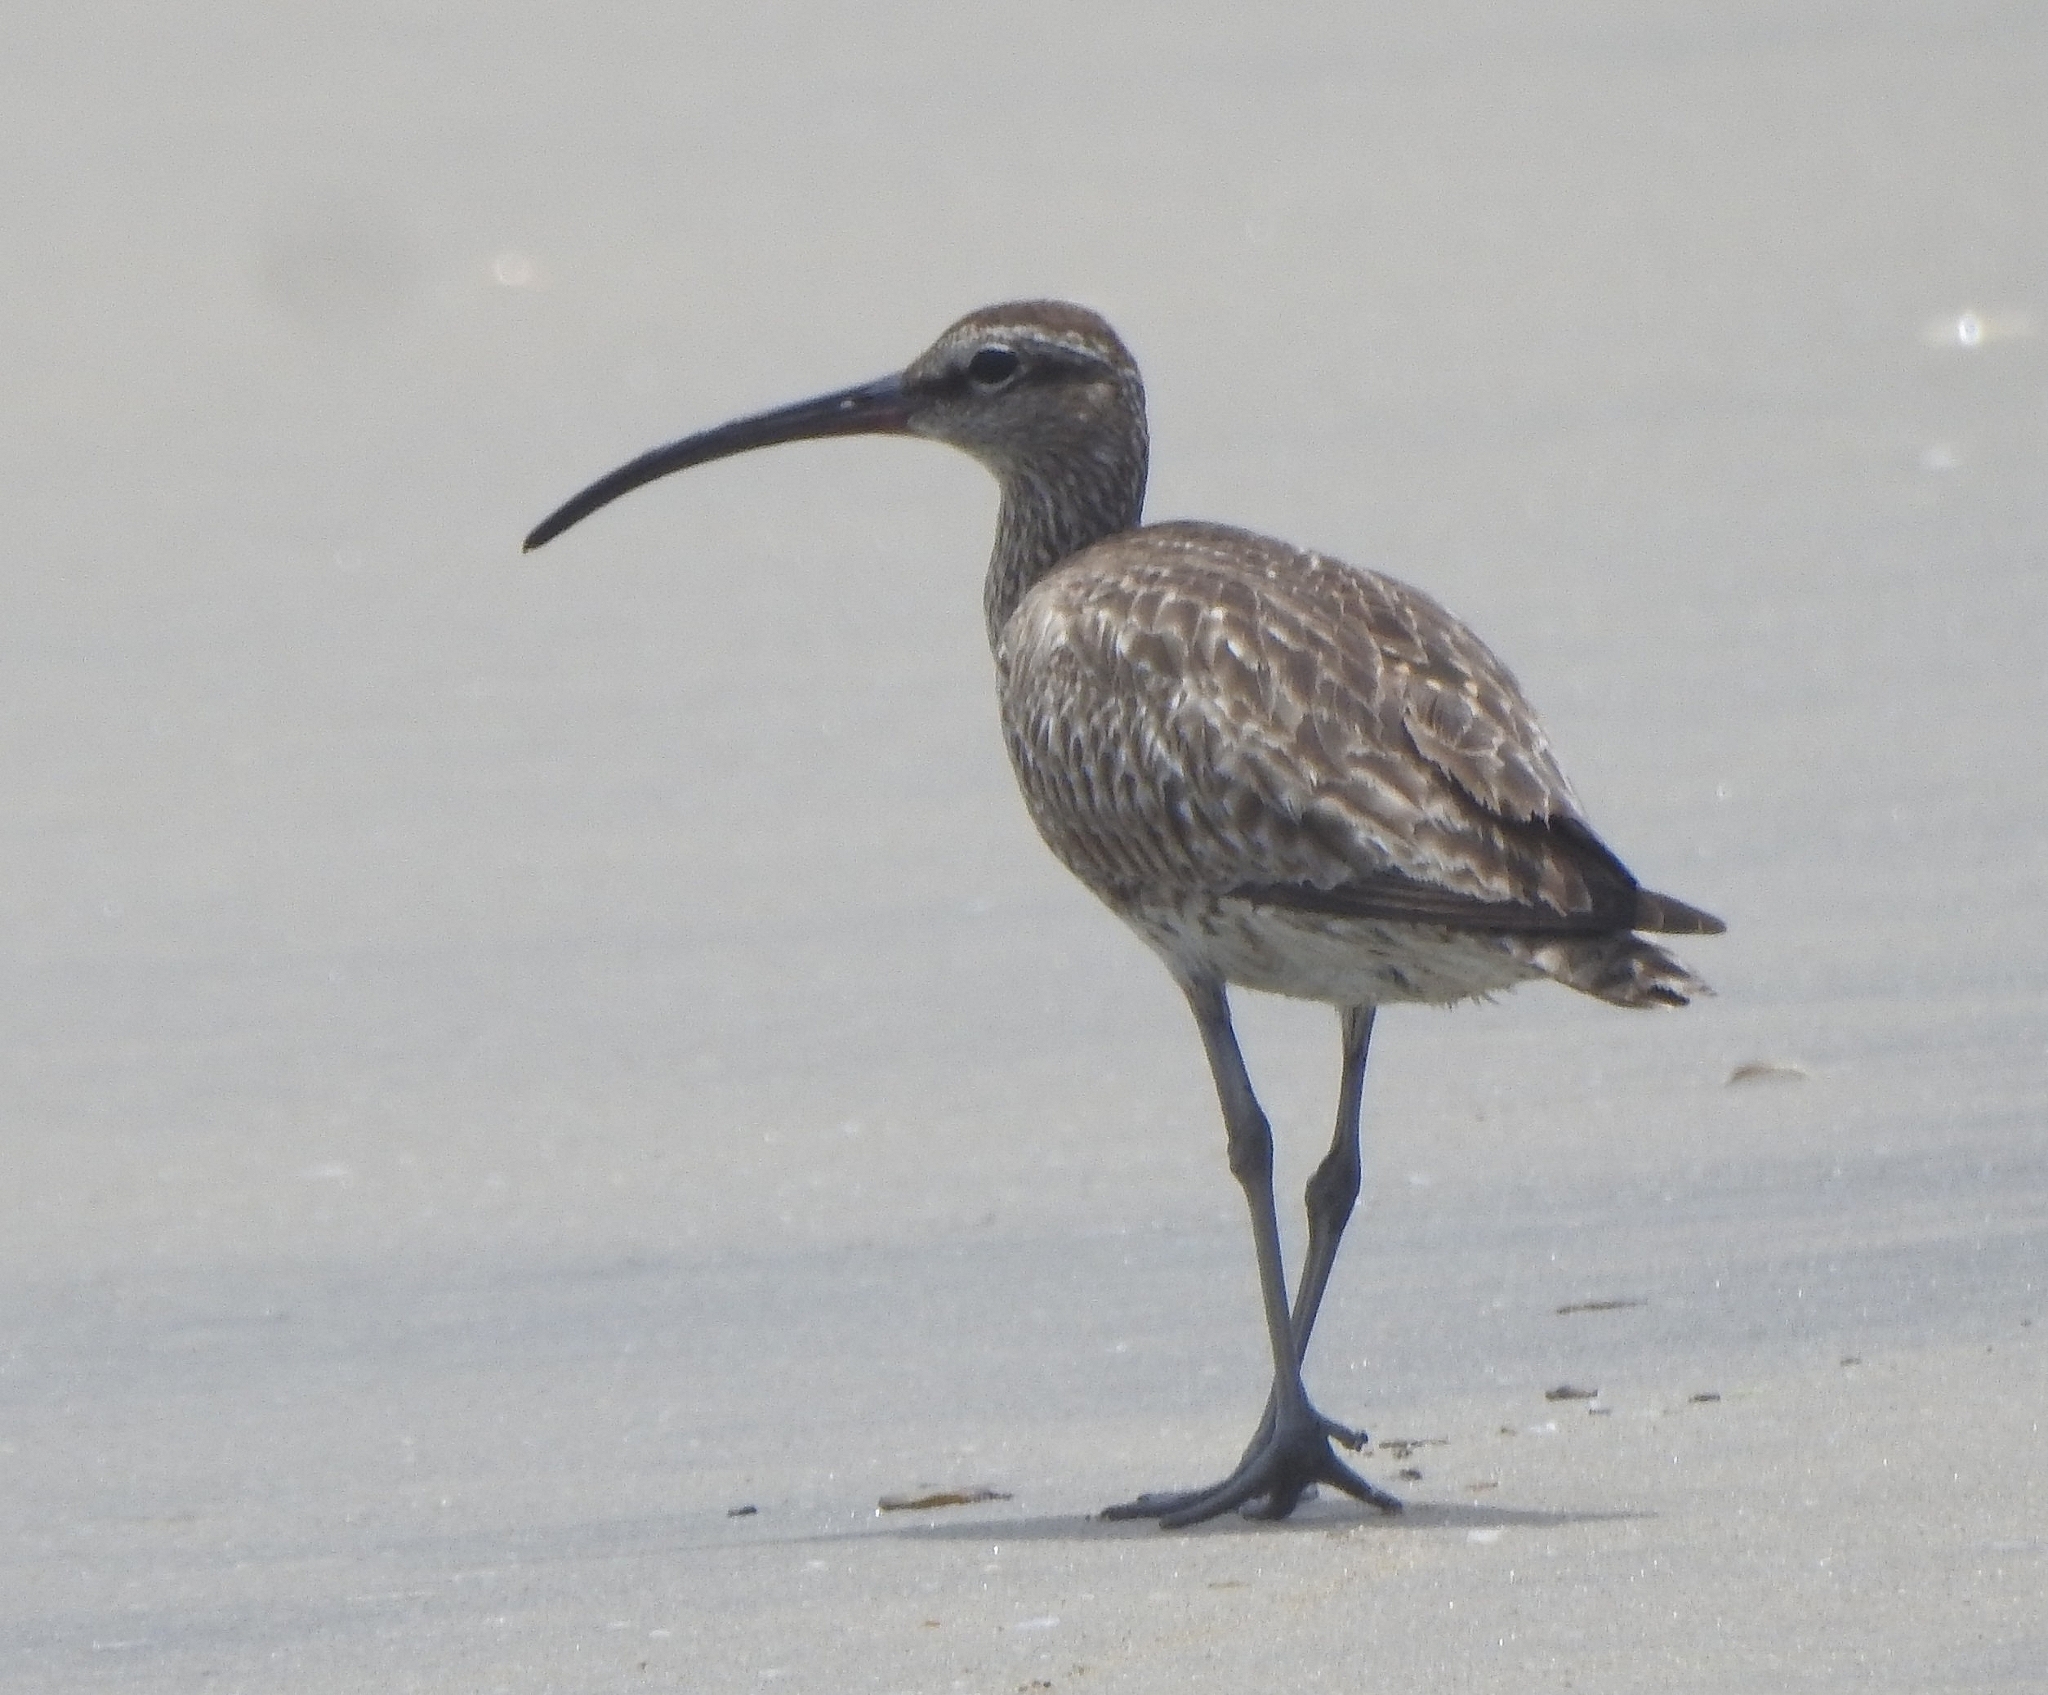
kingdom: Animalia
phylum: Chordata
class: Aves
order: Charadriiformes
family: Scolopacidae
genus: Numenius
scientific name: Numenius phaeopus
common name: Whimbrel
